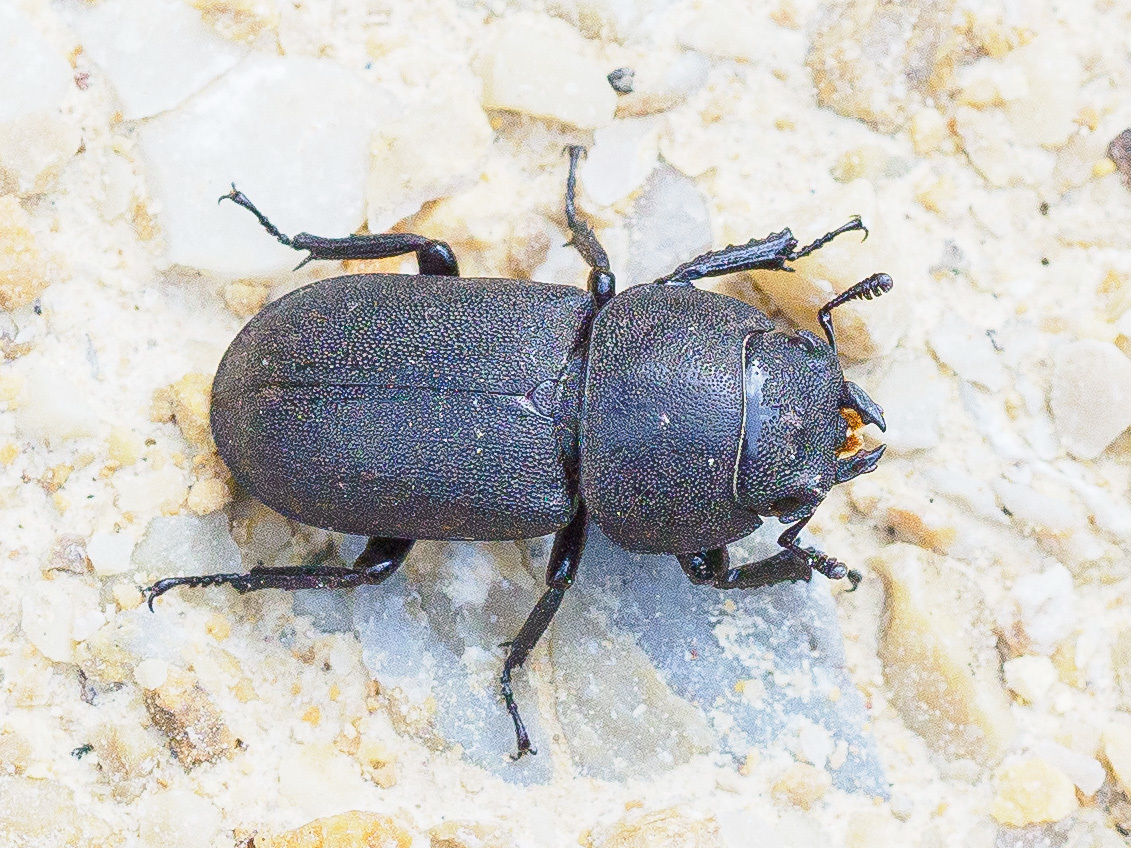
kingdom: Animalia
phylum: Arthropoda
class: Insecta
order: Coleoptera
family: Lucanidae
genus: Dorcus
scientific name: Dorcus parallelipipedus
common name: Lesser stag beetle
